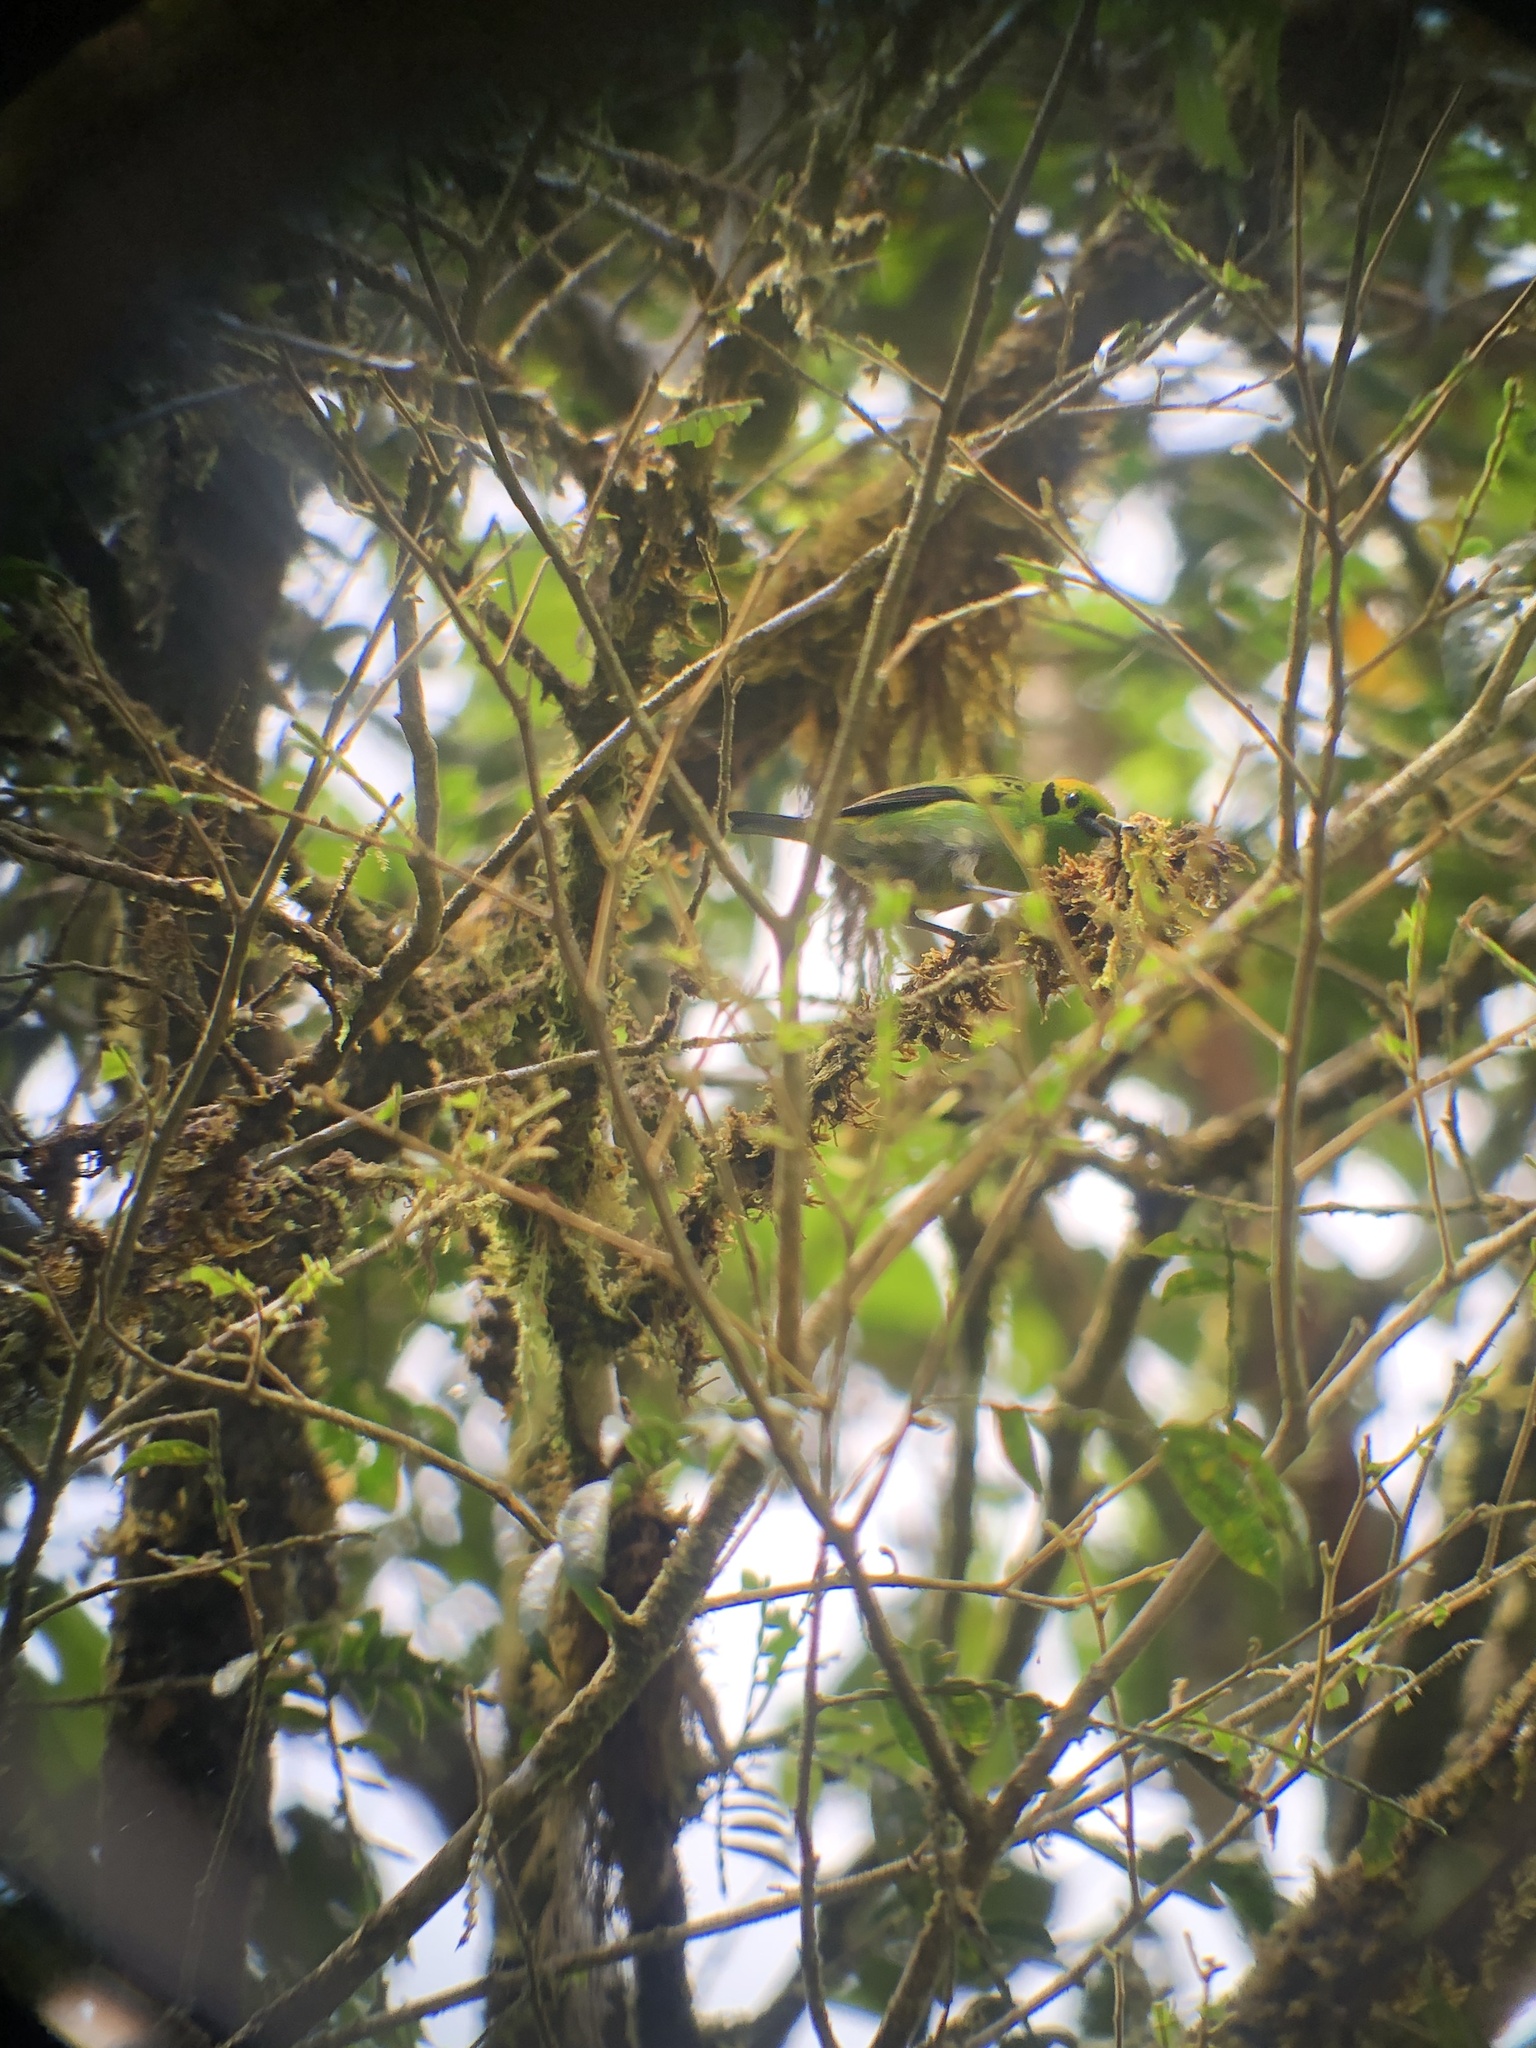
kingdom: Animalia
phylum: Chordata
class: Aves
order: Passeriformes
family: Thraupidae
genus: Tangara
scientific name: Tangara florida
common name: Emerald tanager
